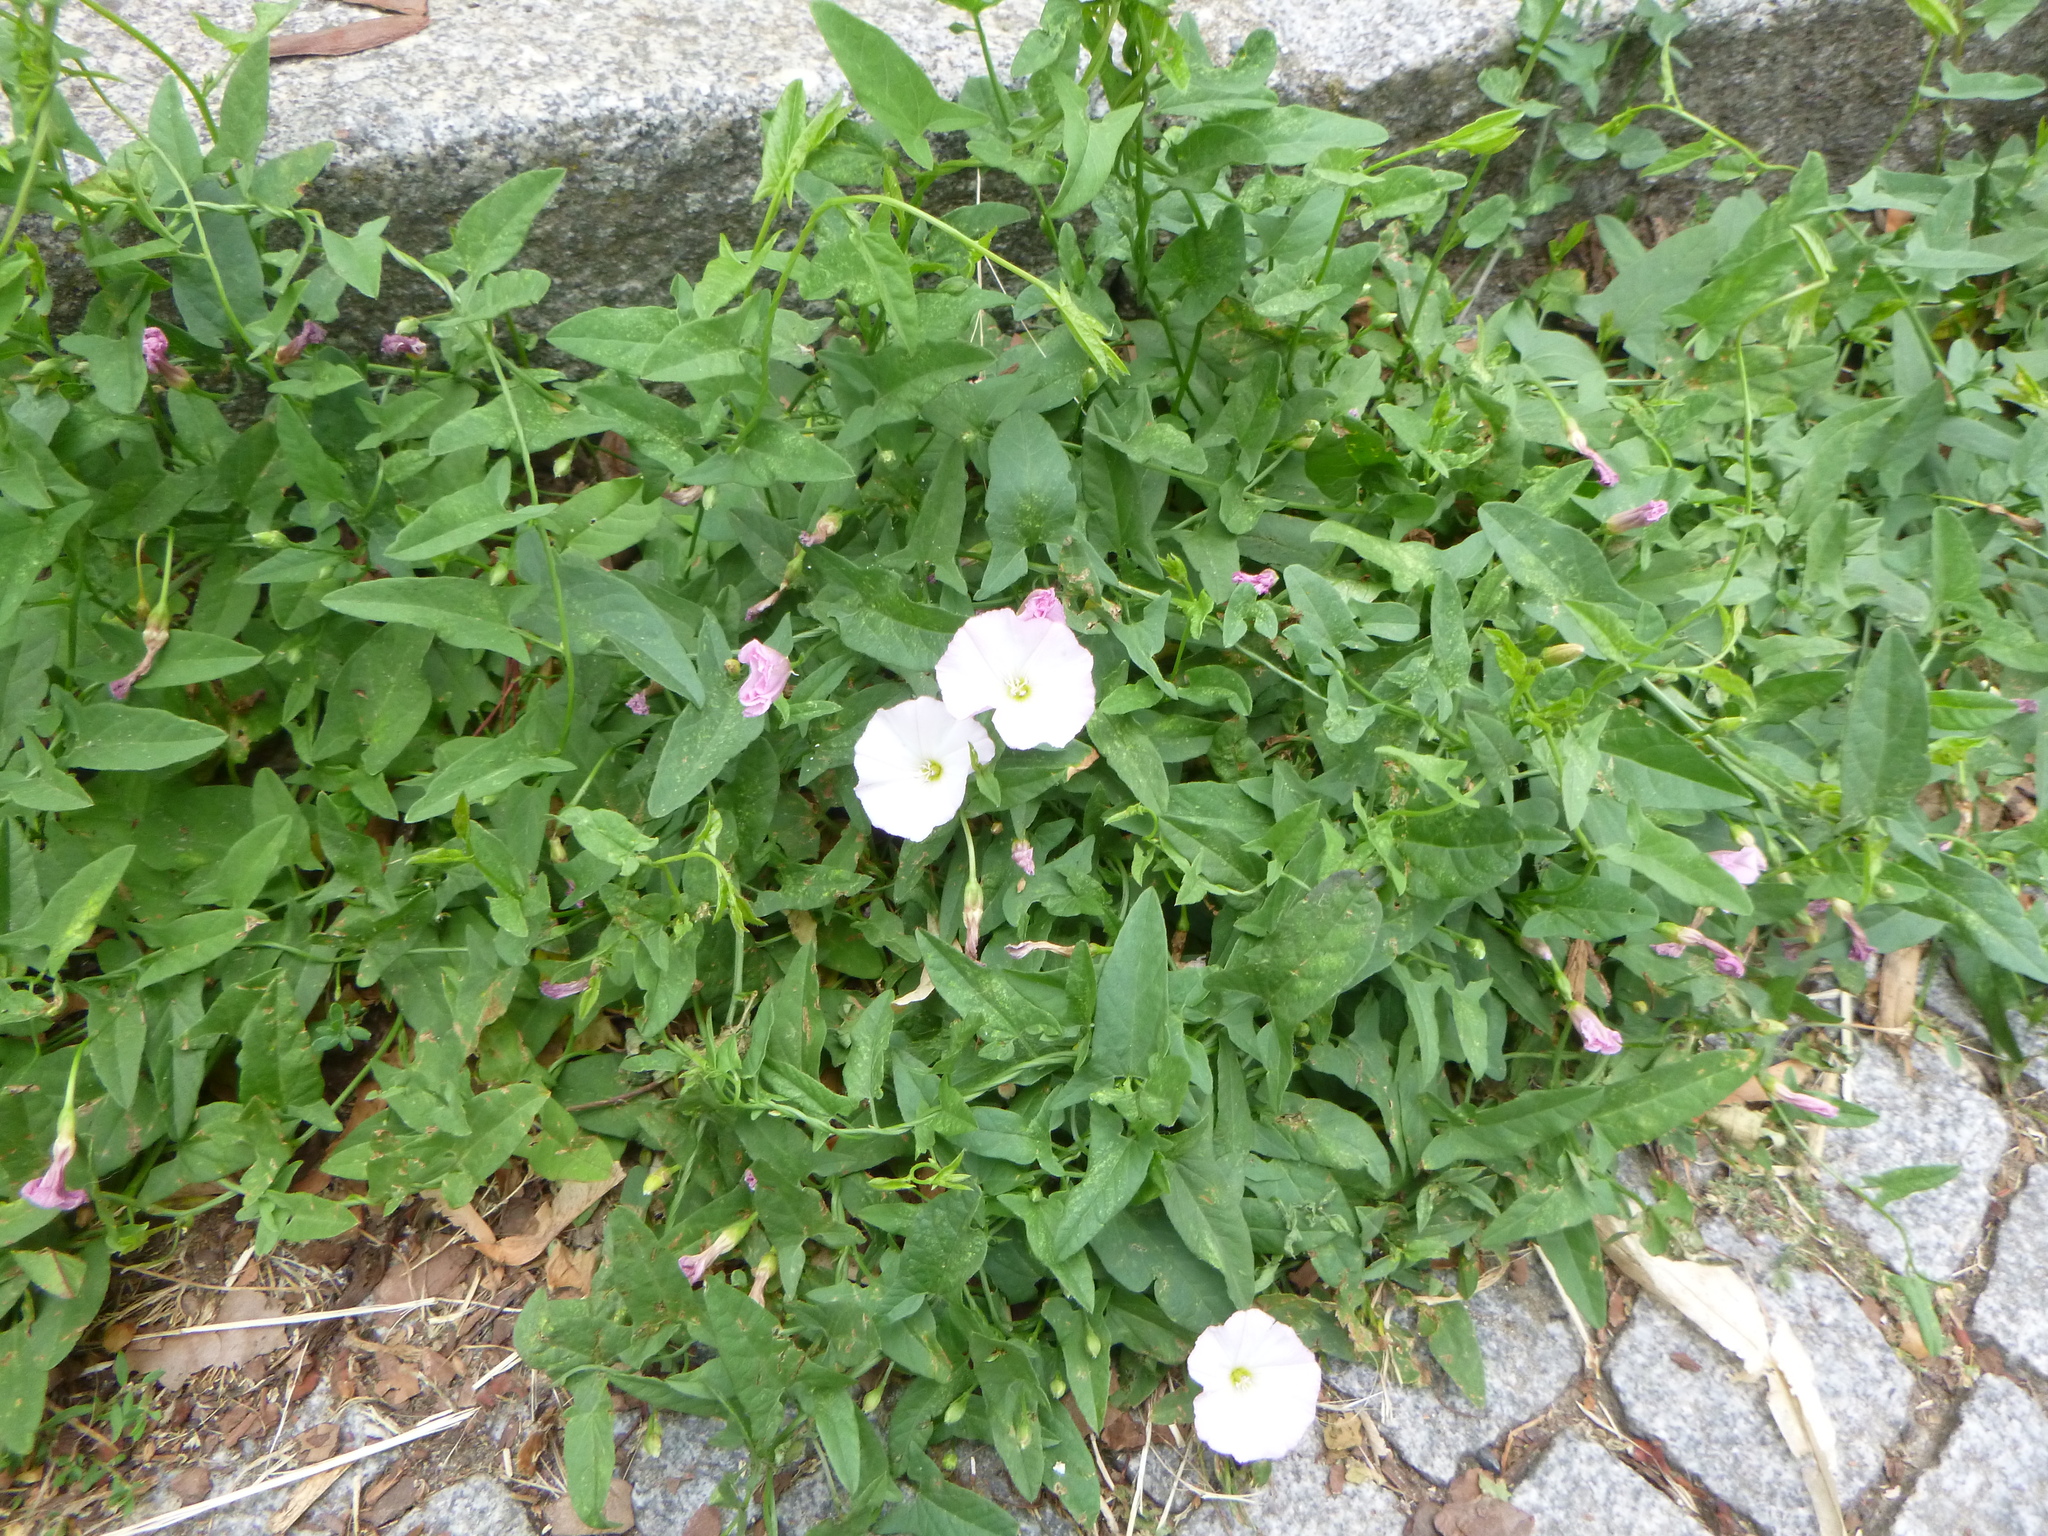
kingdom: Plantae
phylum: Tracheophyta
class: Magnoliopsida
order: Solanales
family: Convolvulaceae
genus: Convolvulus
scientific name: Convolvulus arvensis
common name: Field bindweed
